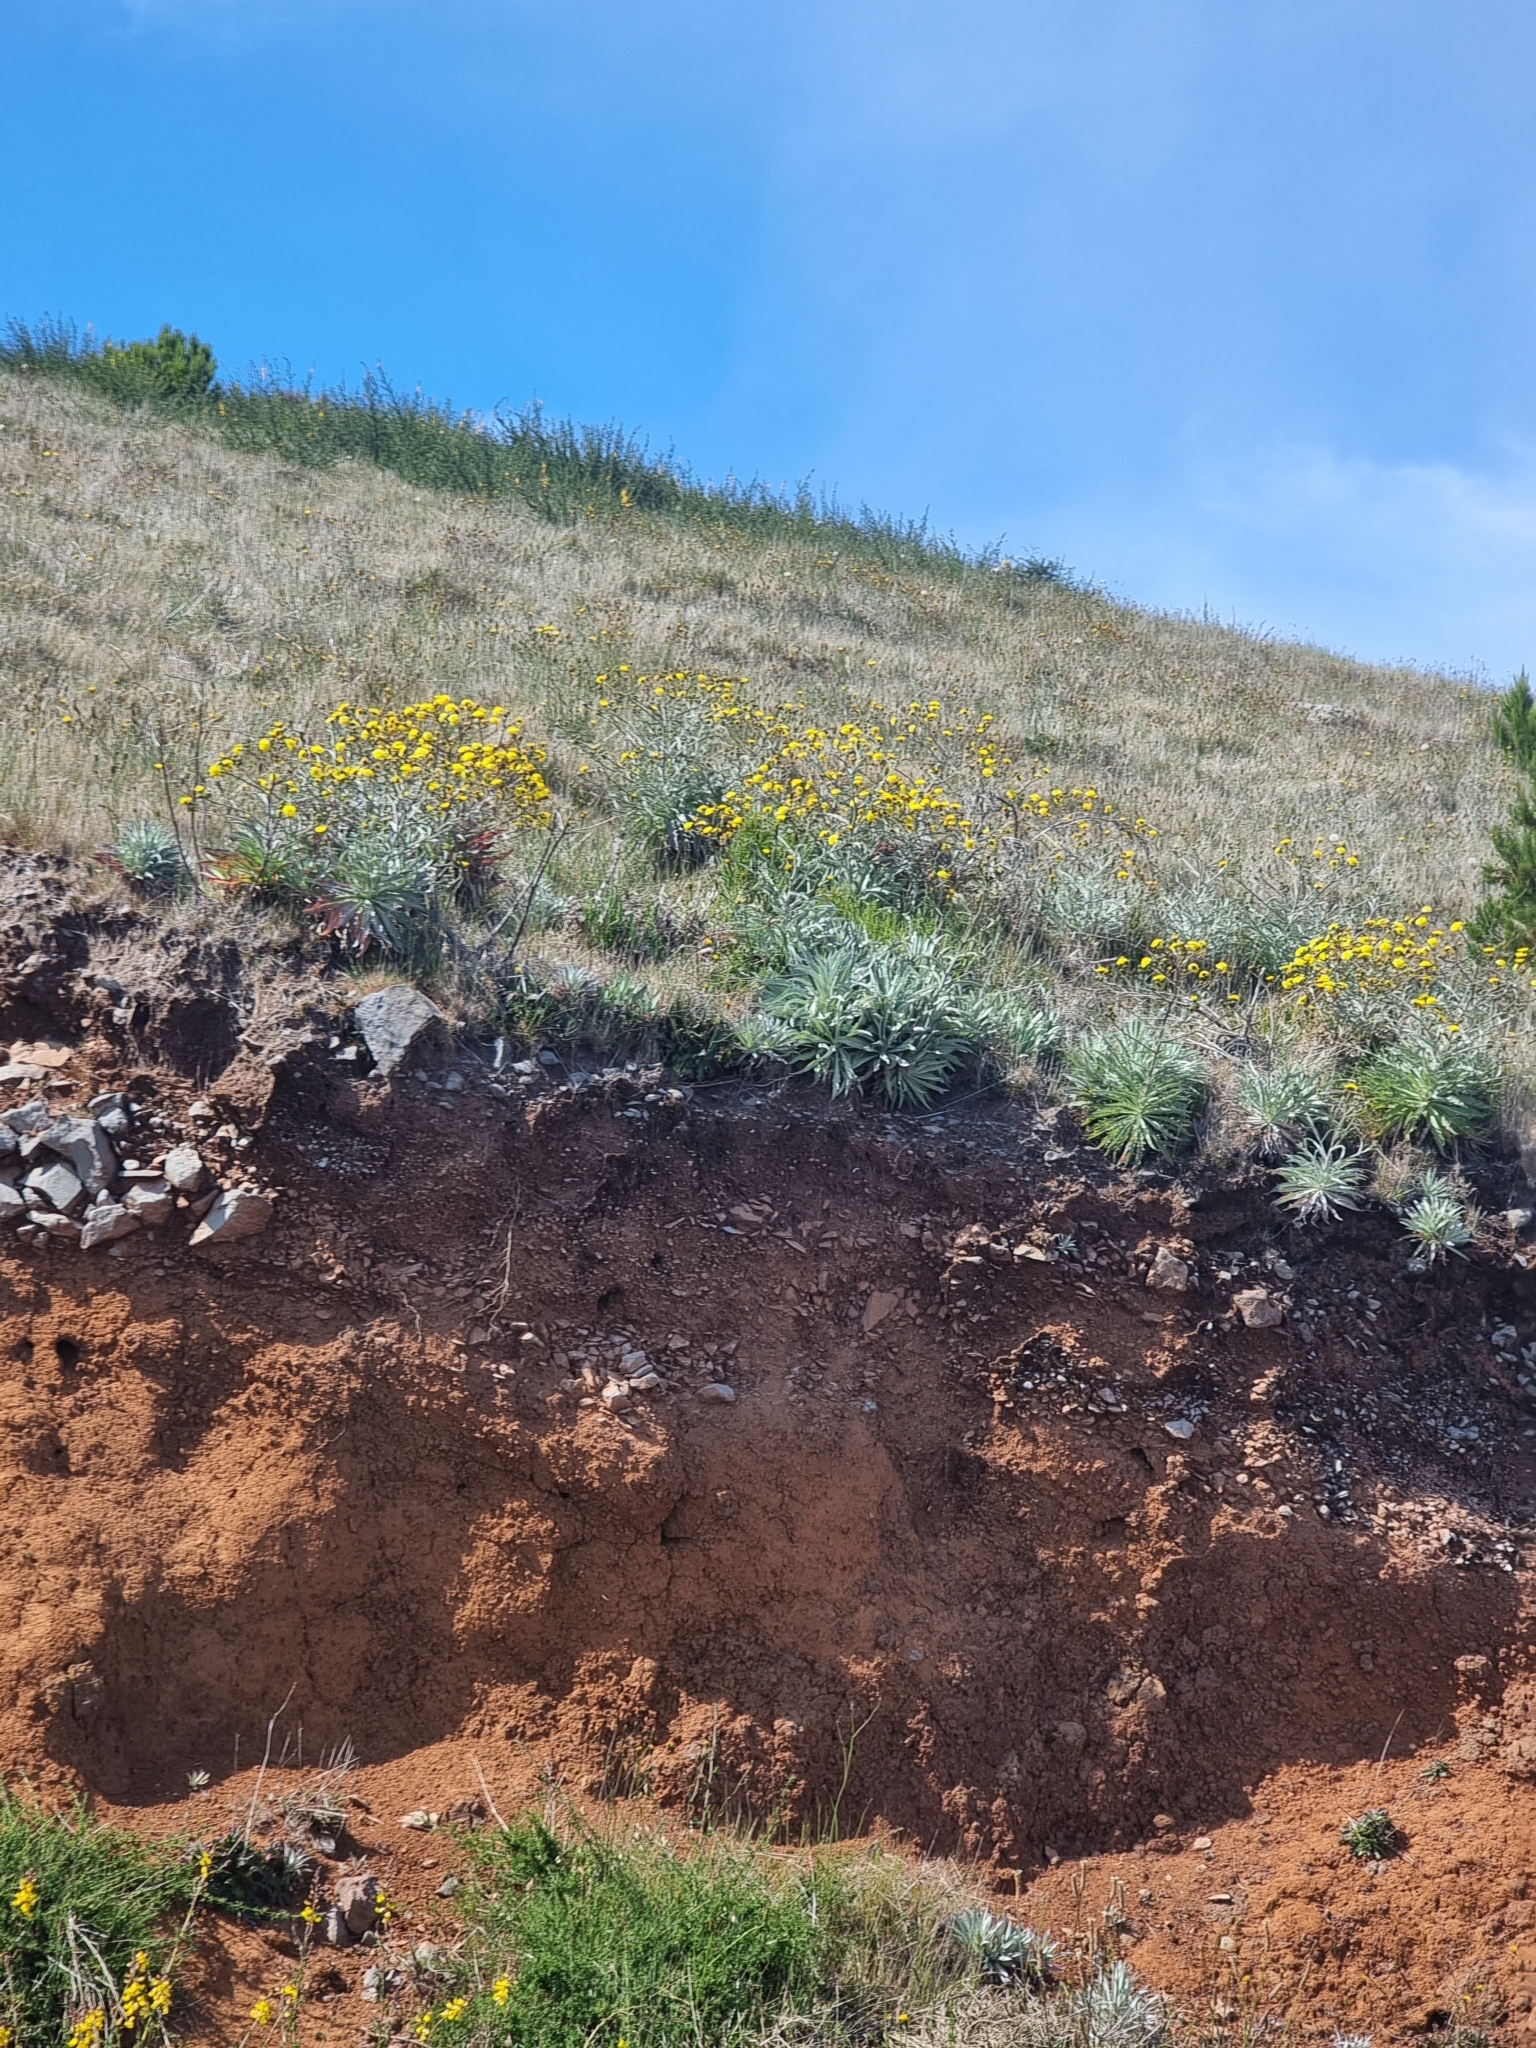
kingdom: Plantae
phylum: Tracheophyta
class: Magnoliopsida
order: Asterales
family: Asteraceae
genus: Andryala
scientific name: Andryala glandulosa
